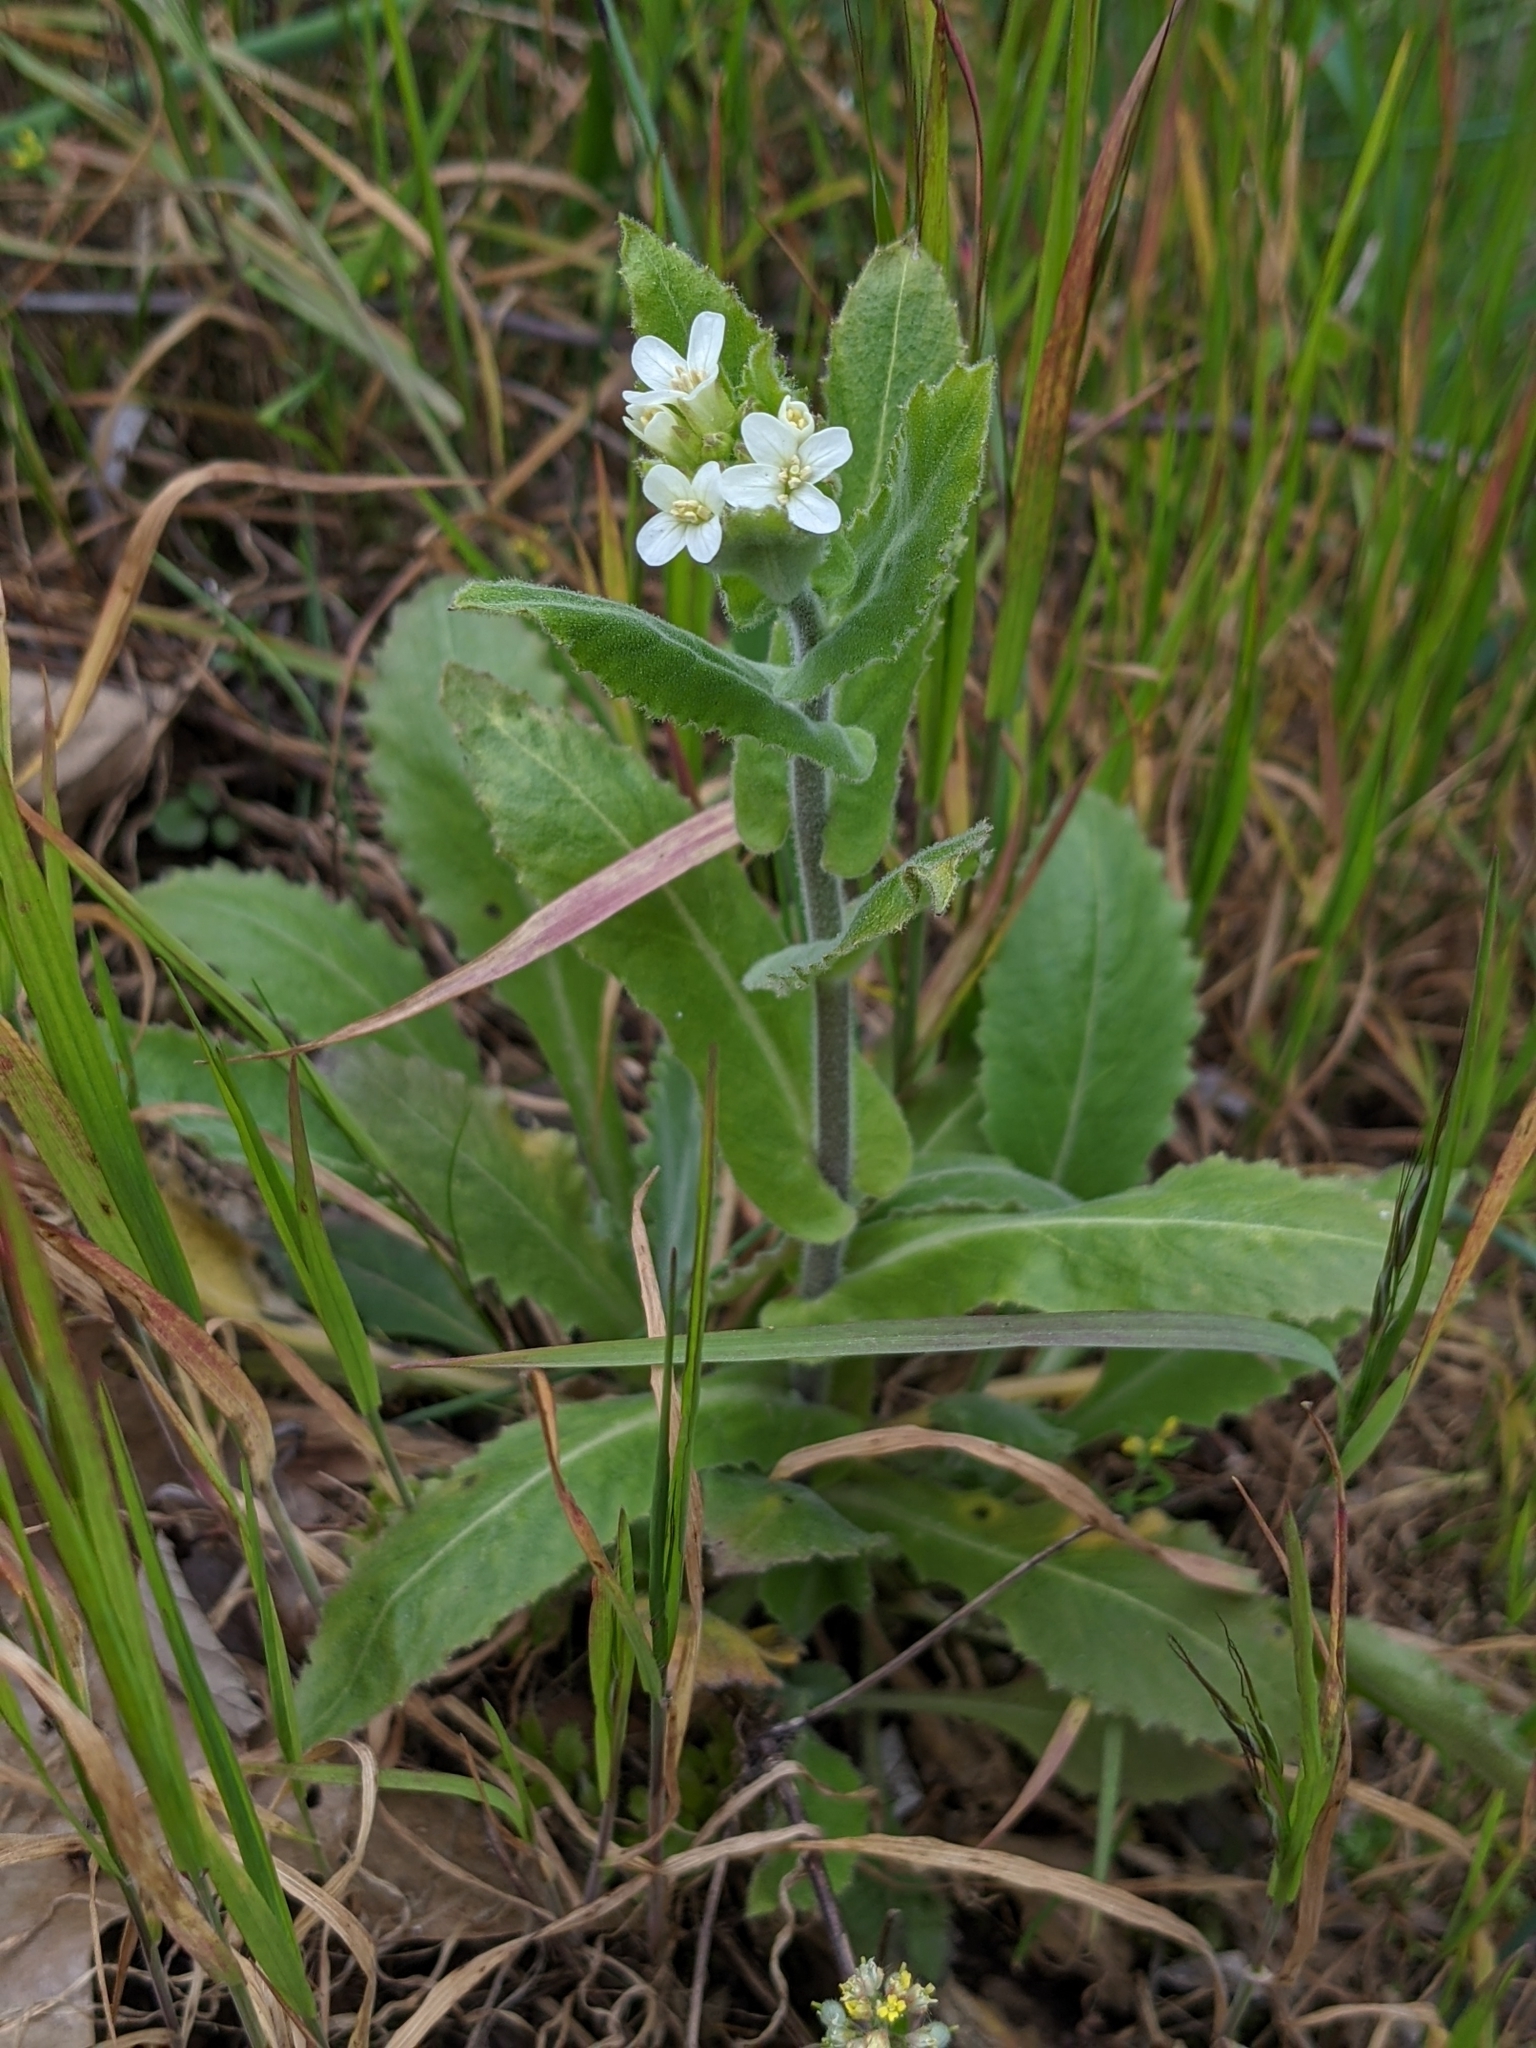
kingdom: Plantae
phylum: Tracheophyta
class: Magnoliopsida
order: Brassicales
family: Brassicaceae
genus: Pseudoturritis
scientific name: Pseudoturritis turrita
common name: Tower cress
